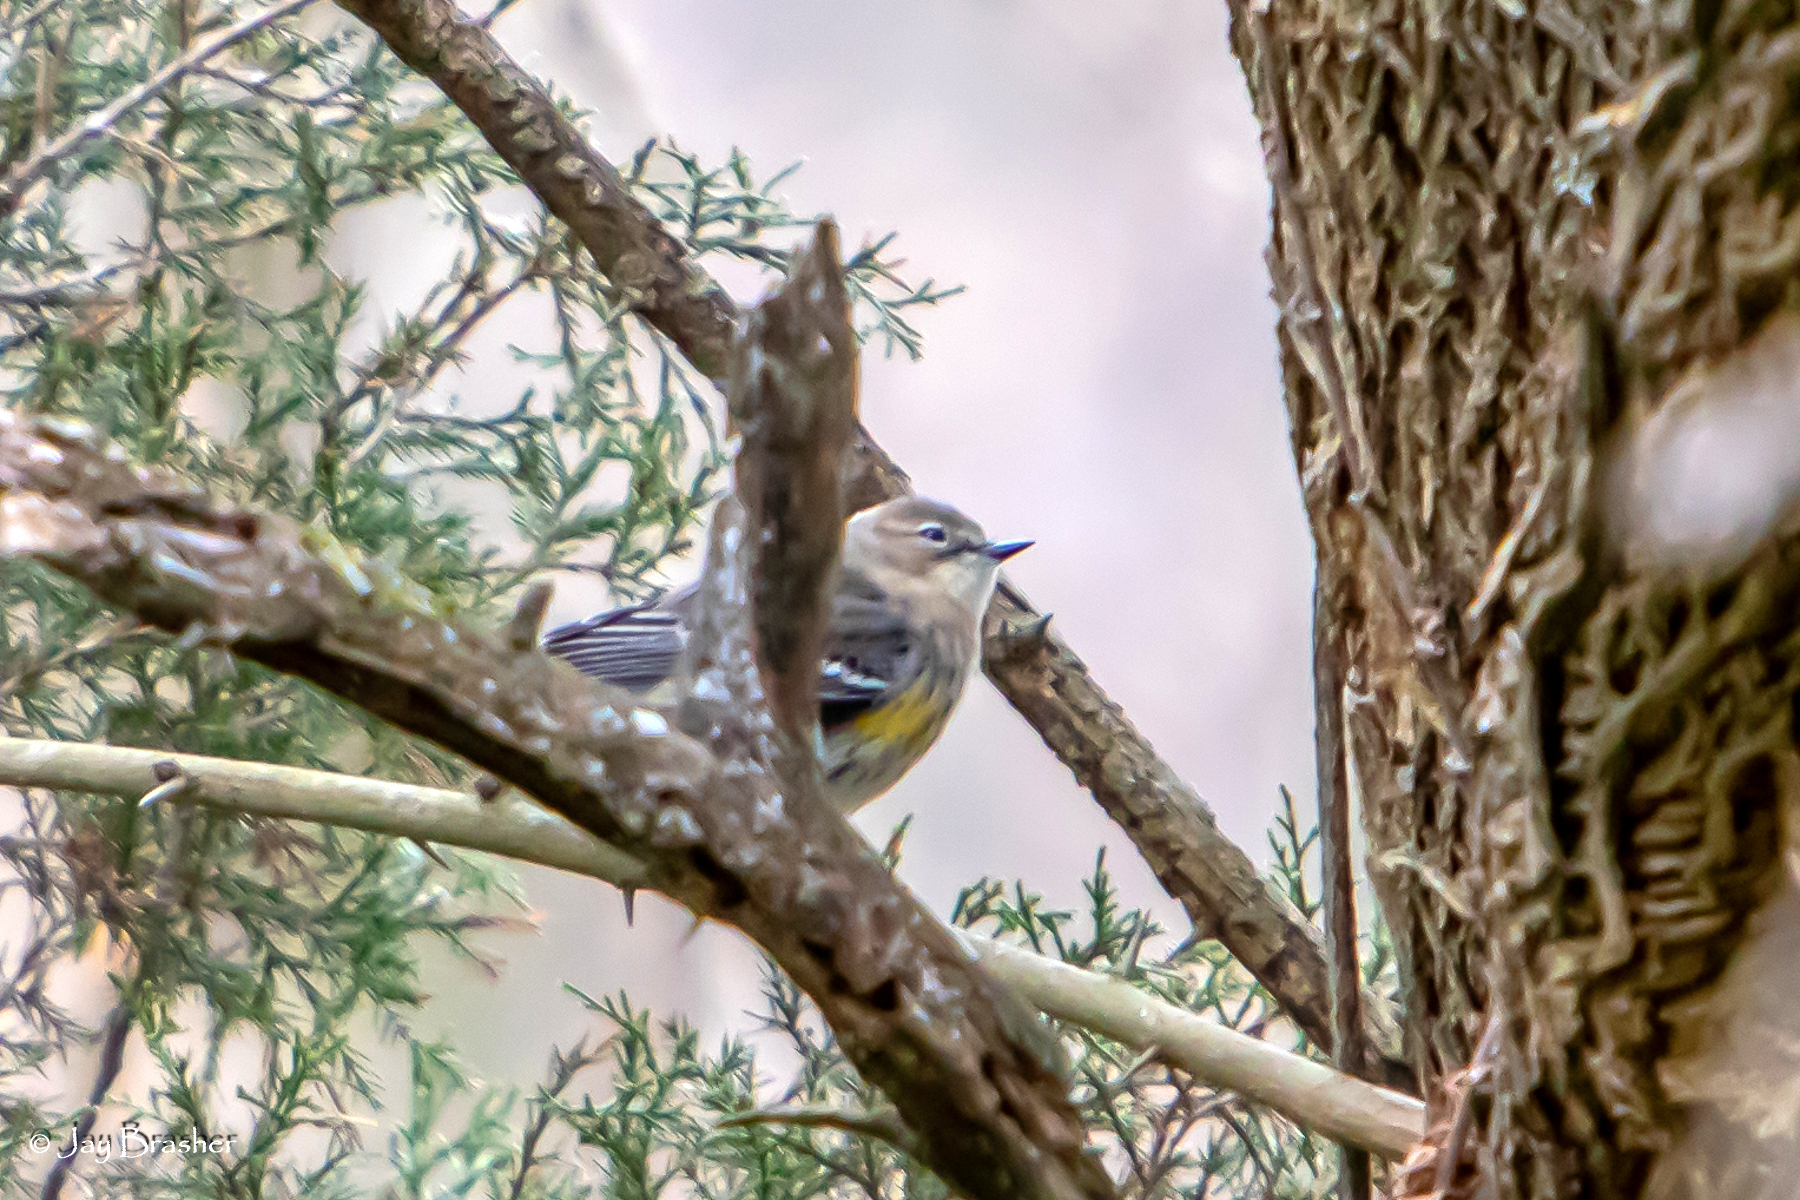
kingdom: Animalia
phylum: Chordata
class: Aves
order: Passeriformes
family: Parulidae
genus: Setophaga
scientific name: Setophaga coronata
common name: Myrtle warbler
